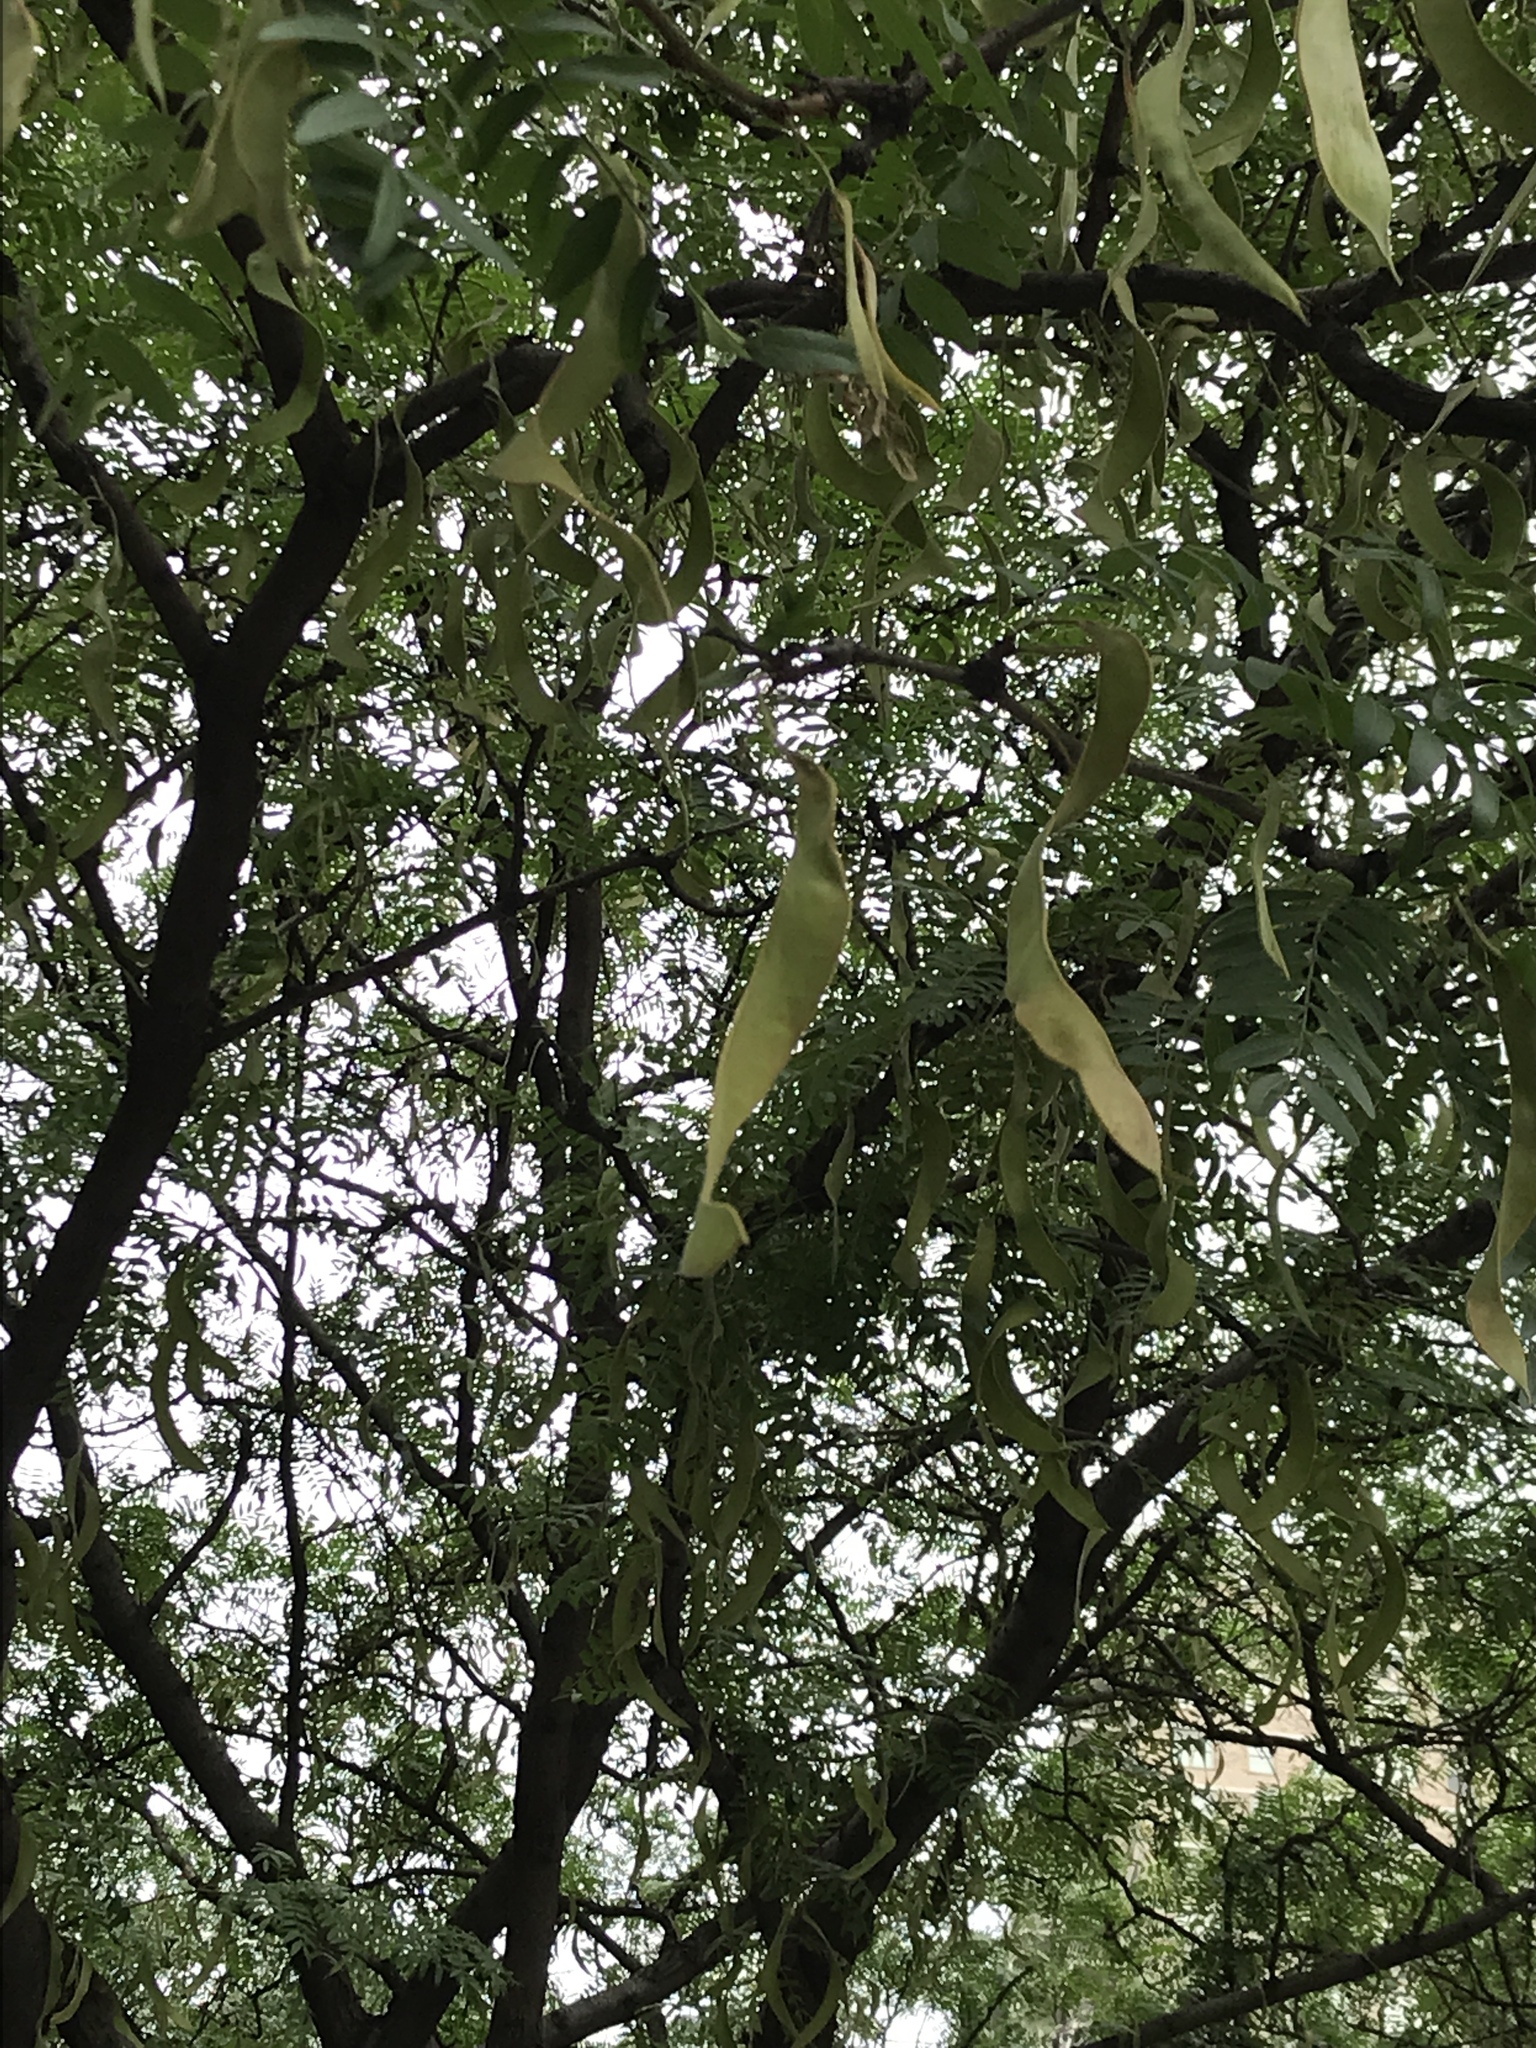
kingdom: Plantae
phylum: Tracheophyta
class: Magnoliopsida
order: Fabales
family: Fabaceae
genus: Gleditsia
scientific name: Gleditsia triacanthos
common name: Common honeylocust
